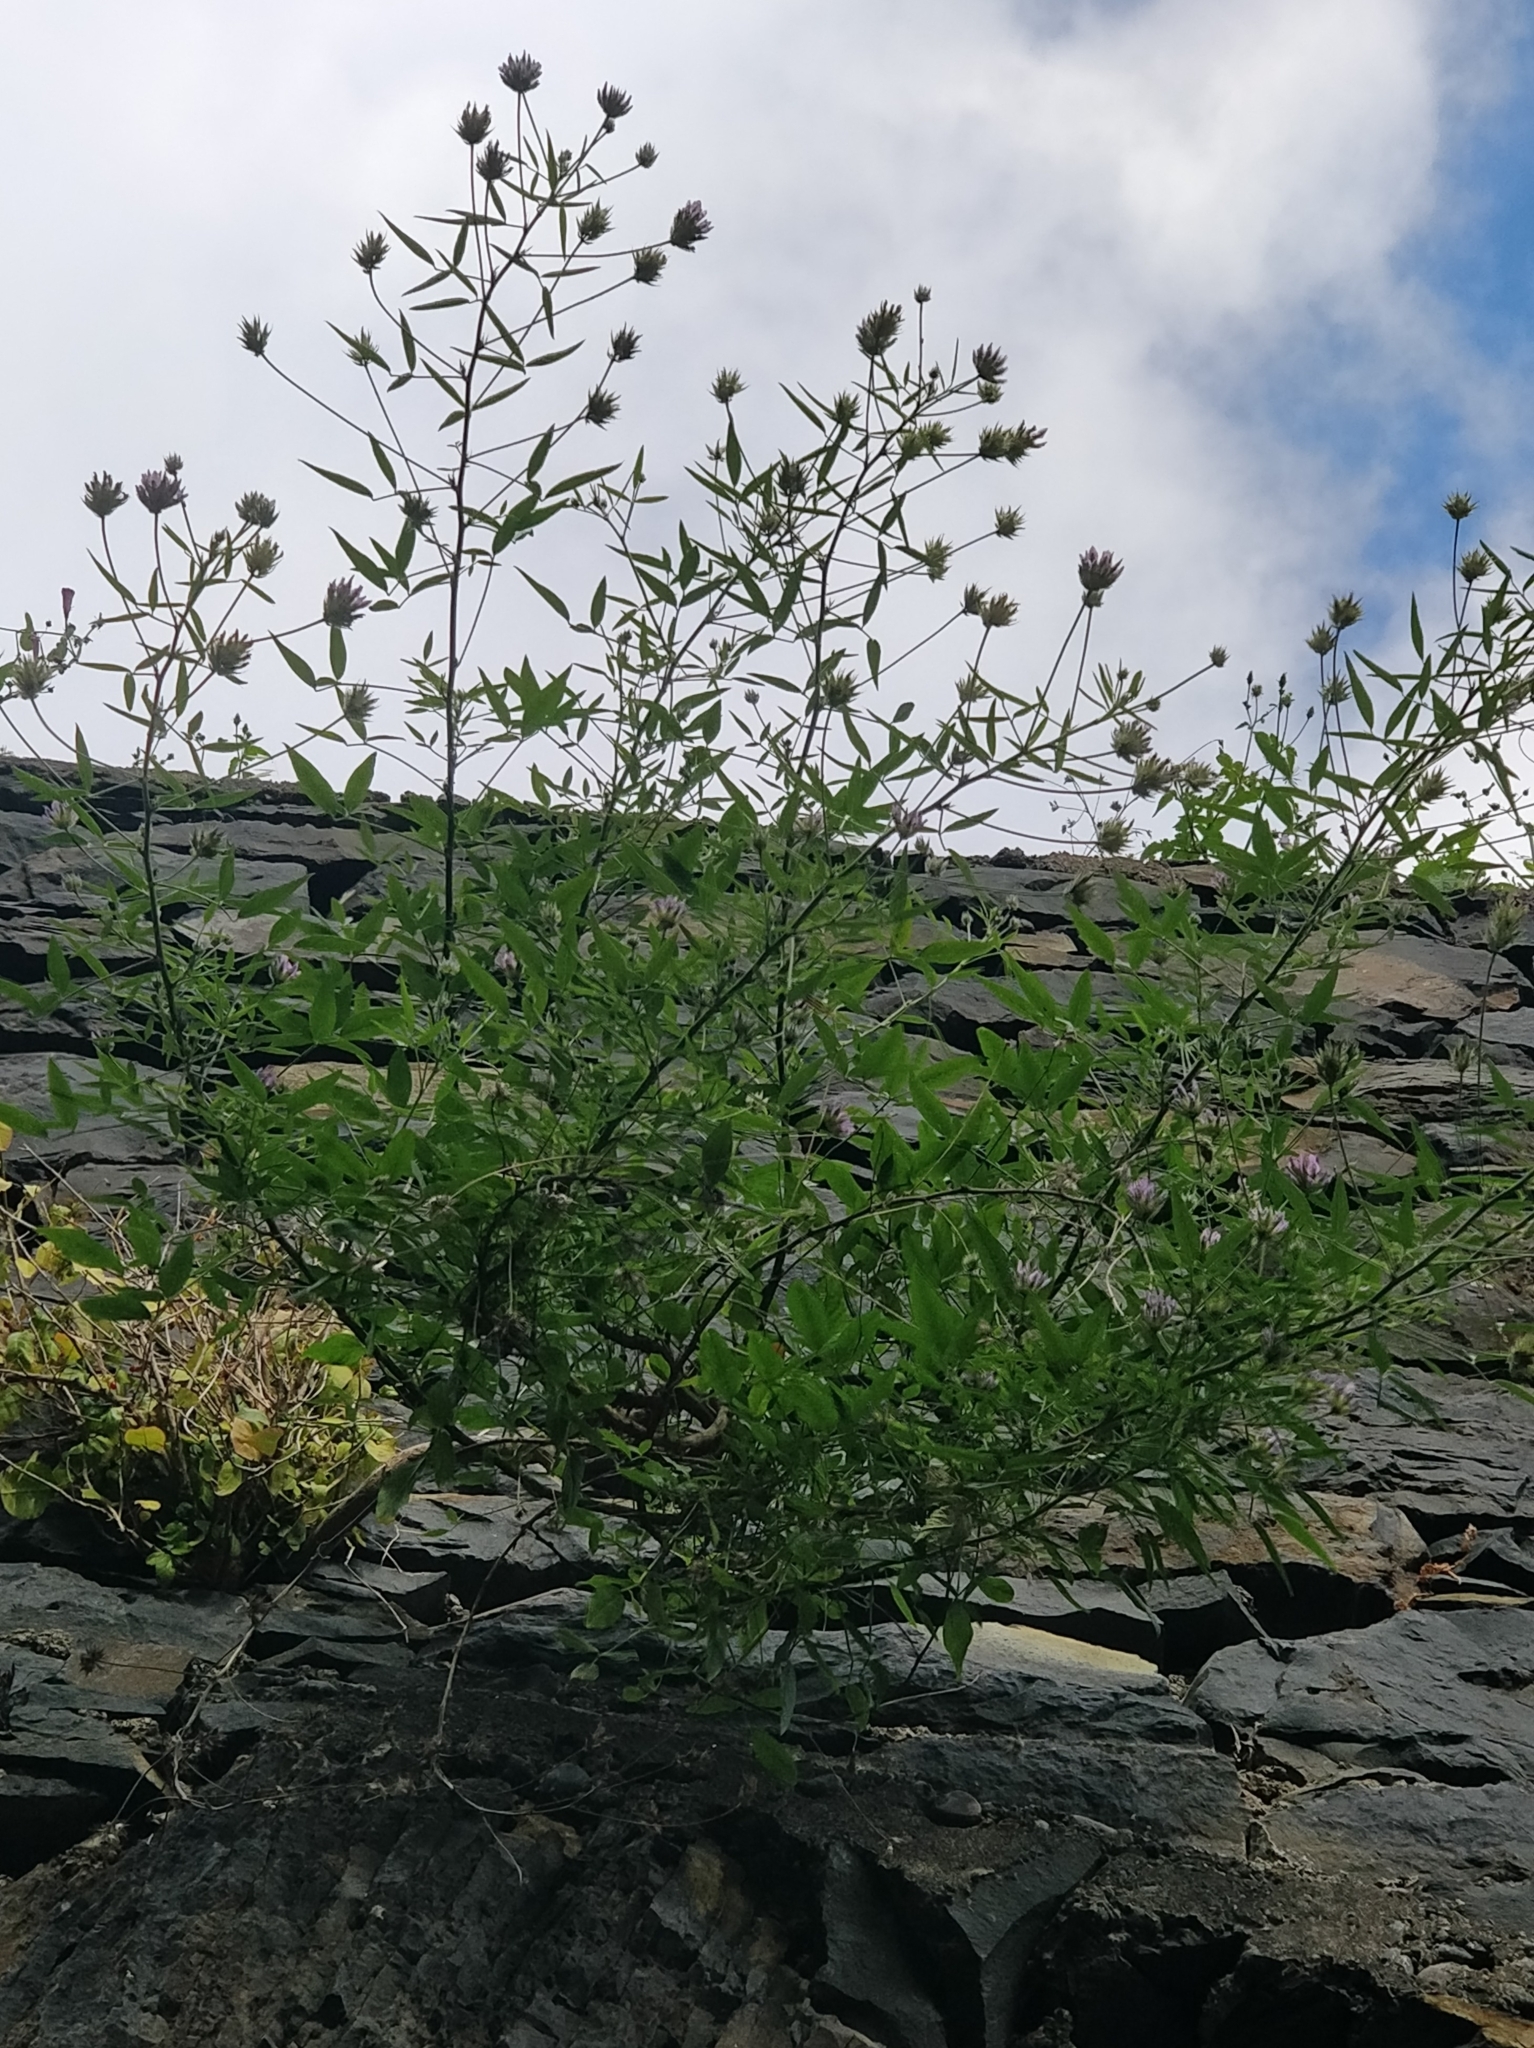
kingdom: Plantae
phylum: Tracheophyta
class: Magnoliopsida
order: Fabales
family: Fabaceae
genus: Bituminaria
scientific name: Bituminaria bituminosa
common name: Arabian pea
